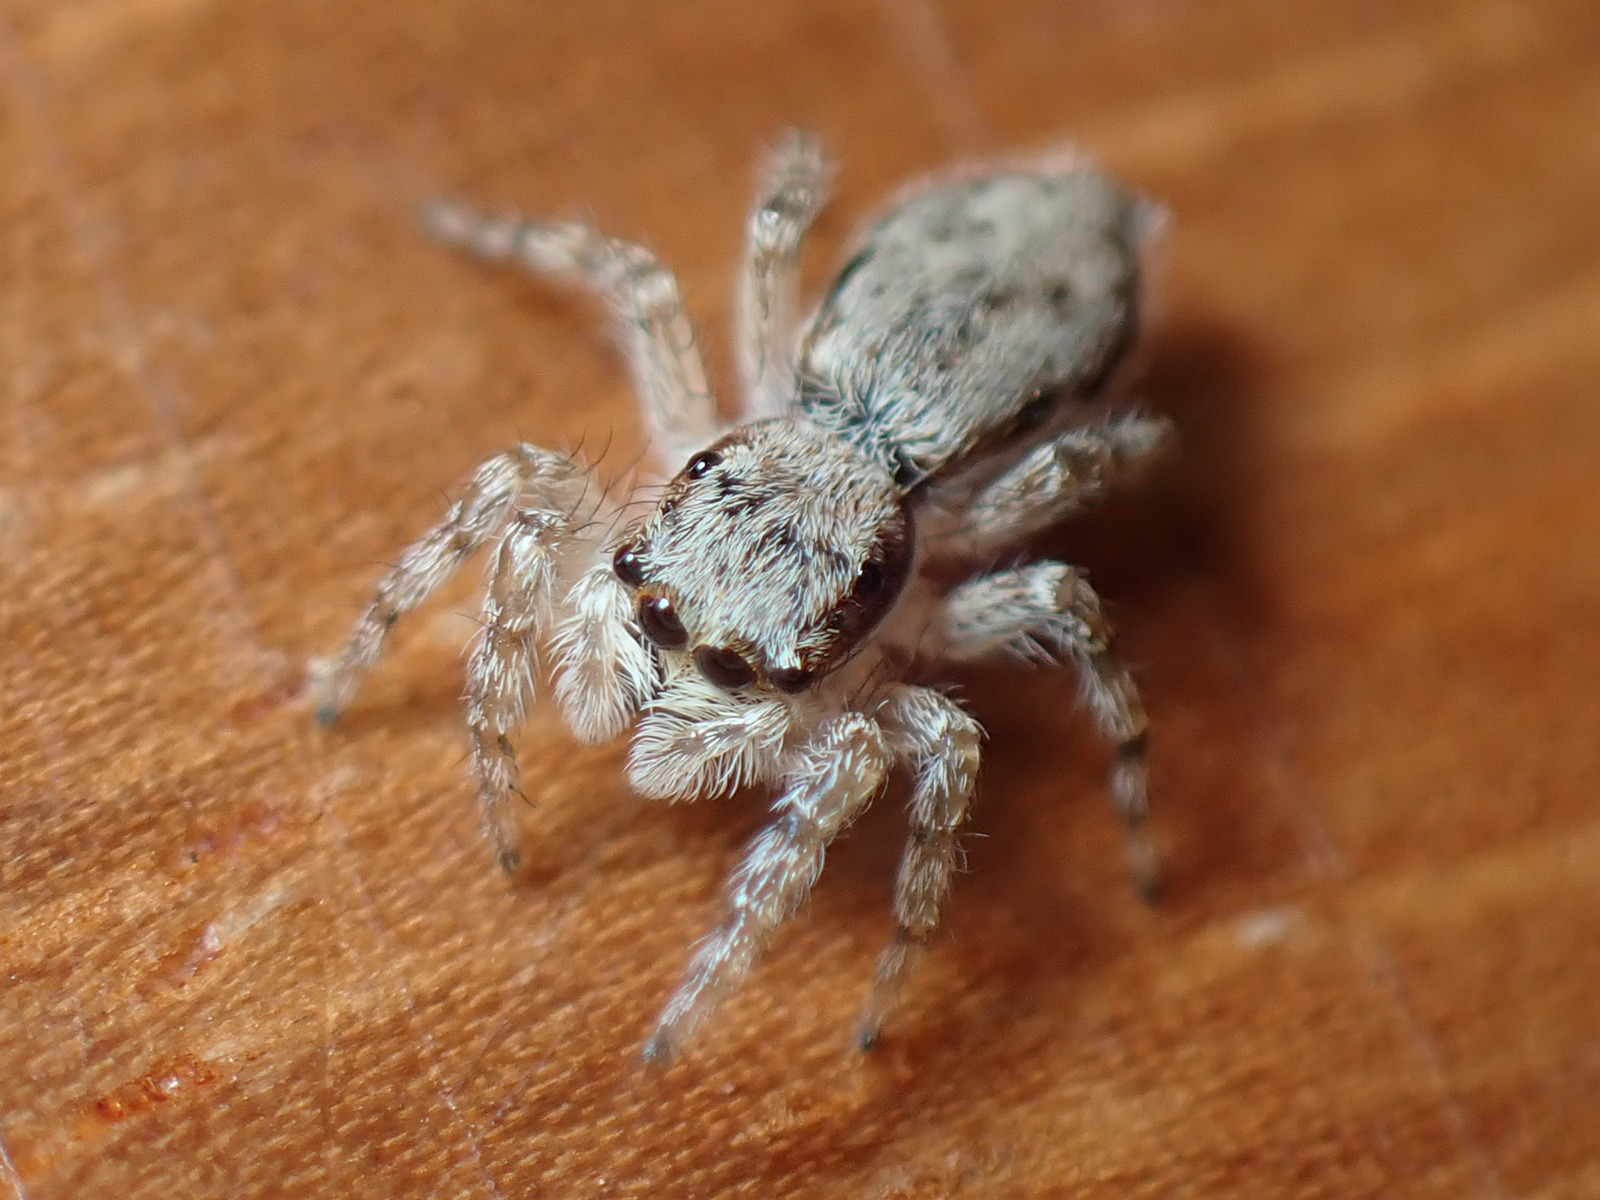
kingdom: Animalia
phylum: Arthropoda
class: Arachnida
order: Araneae
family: Salticidae
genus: Menemerus
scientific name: Menemerus bivittatus
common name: Gray wall jumper
